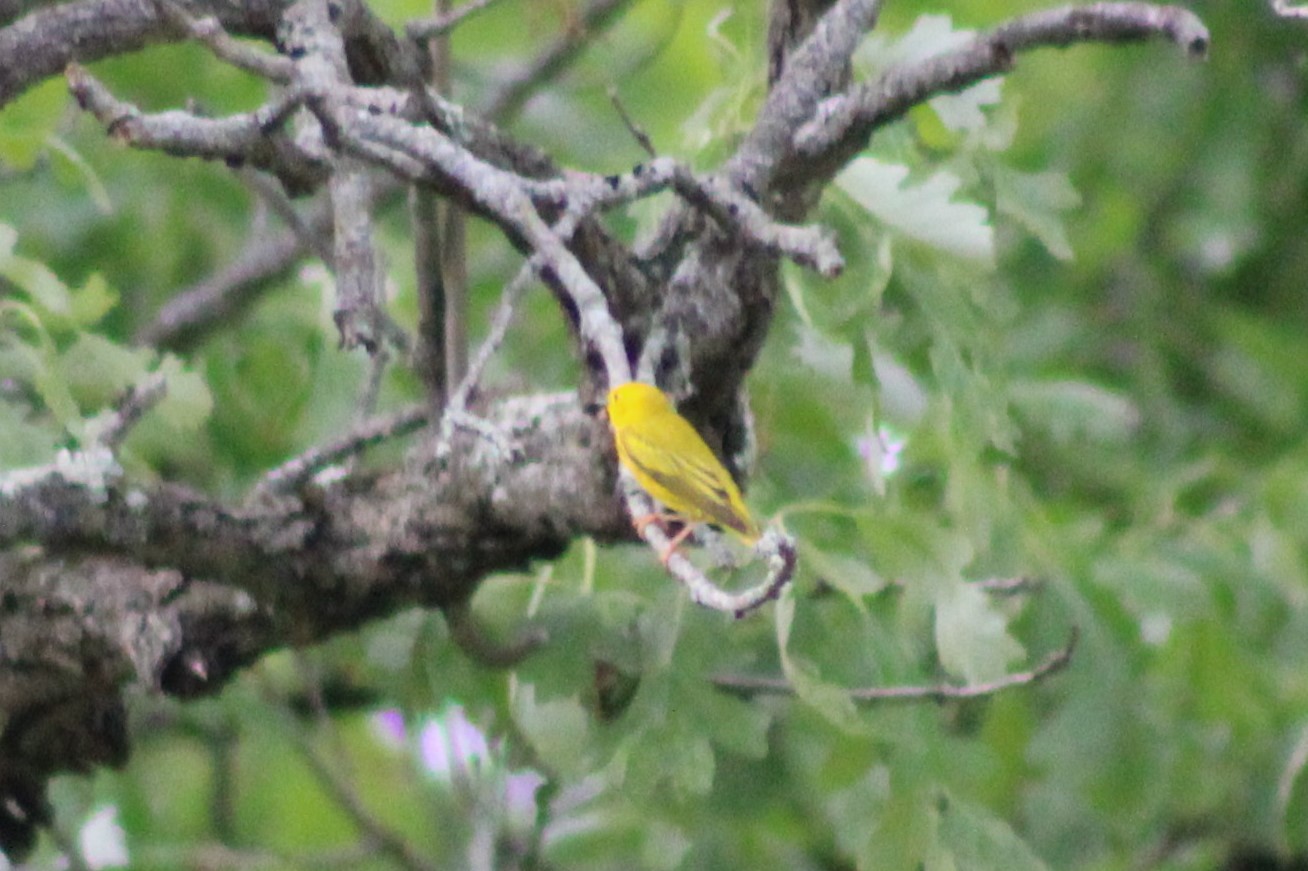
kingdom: Animalia
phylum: Chordata
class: Aves
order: Passeriformes
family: Parulidae
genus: Setophaga
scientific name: Setophaga petechia
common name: Yellow warbler
